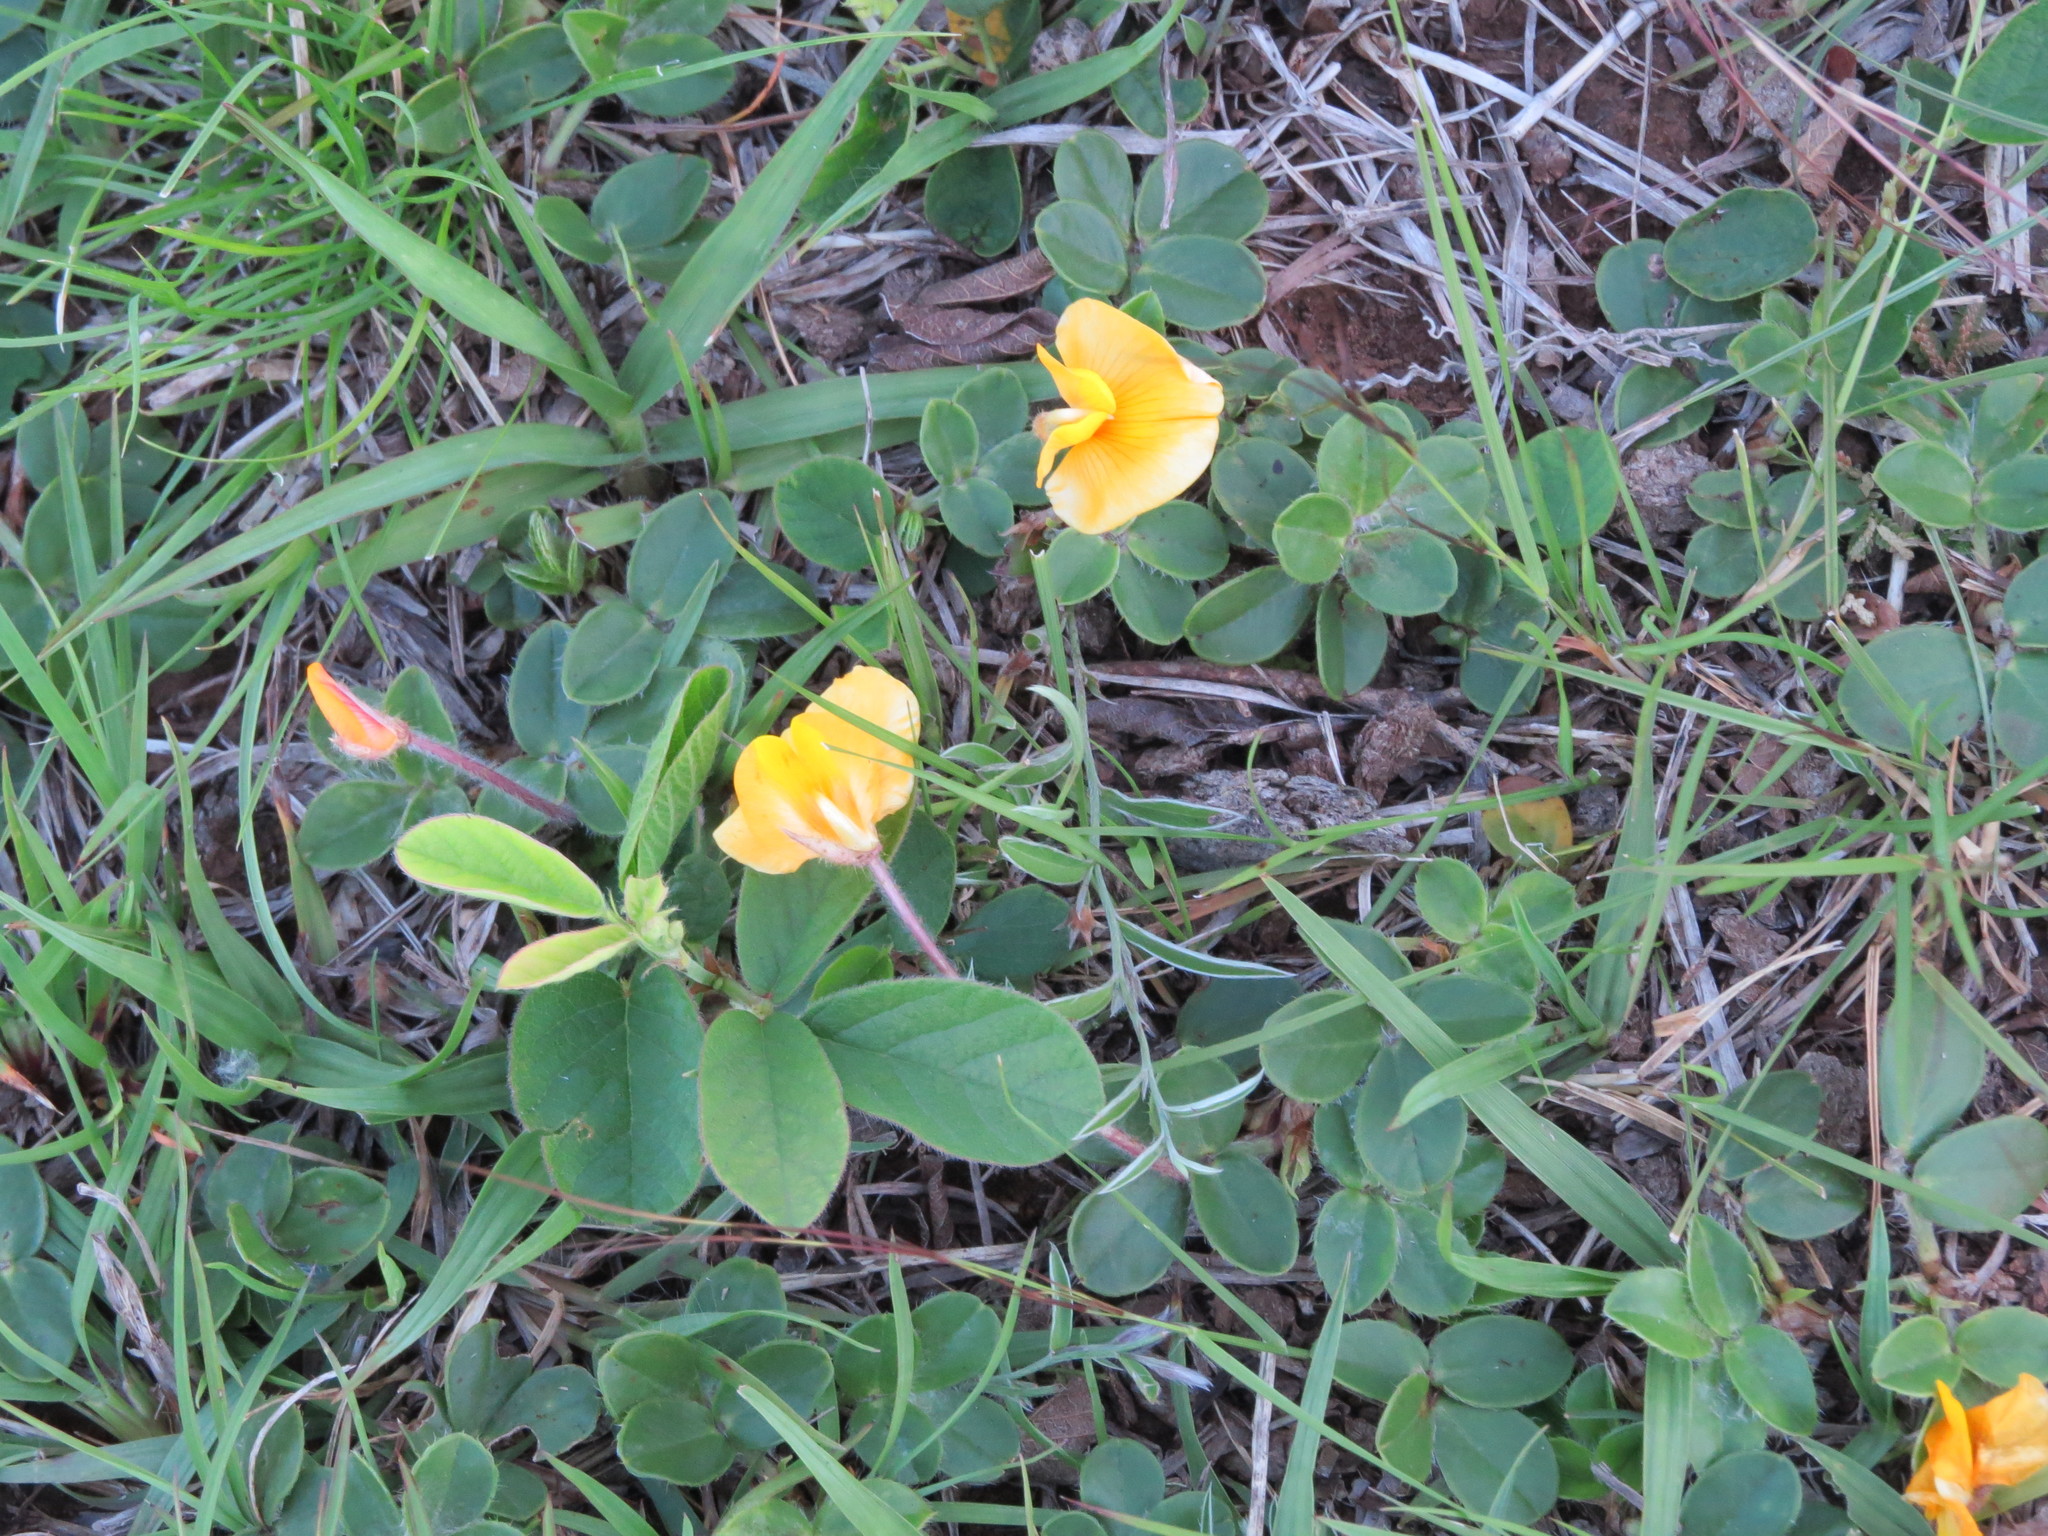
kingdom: Plantae
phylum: Tracheophyta
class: Magnoliopsida
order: Fabales
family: Fabaceae
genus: Arachis
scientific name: Arachis burkartii
